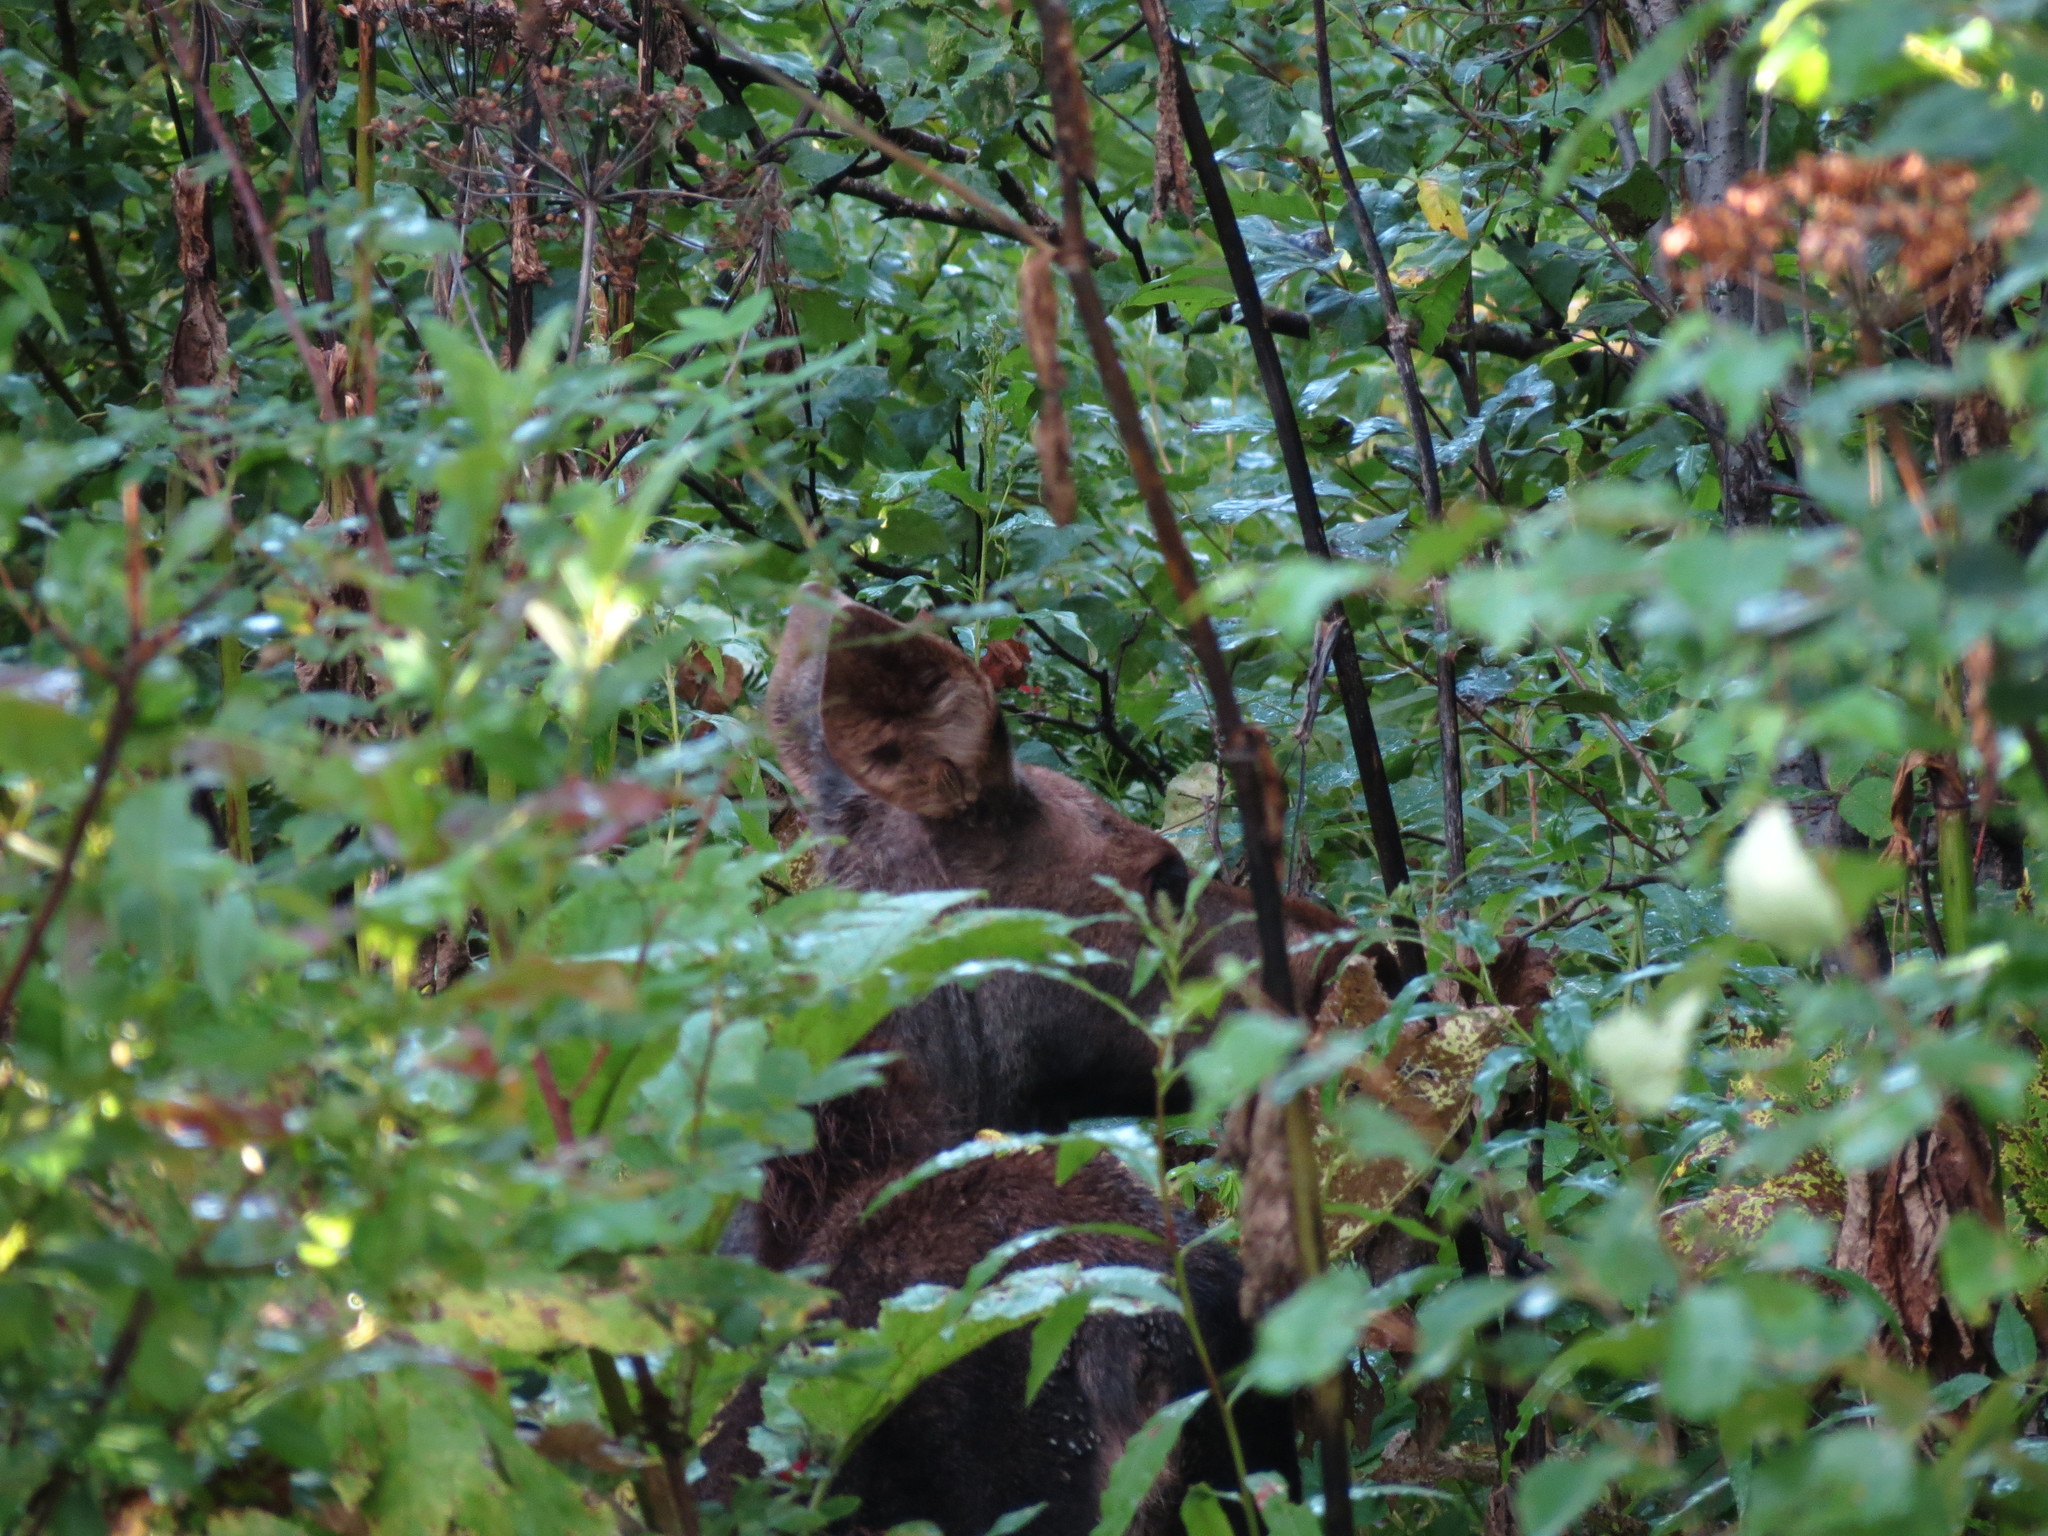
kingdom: Animalia
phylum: Chordata
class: Mammalia
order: Artiodactyla
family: Cervidae
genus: Alces
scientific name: Alces alces
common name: Moose
